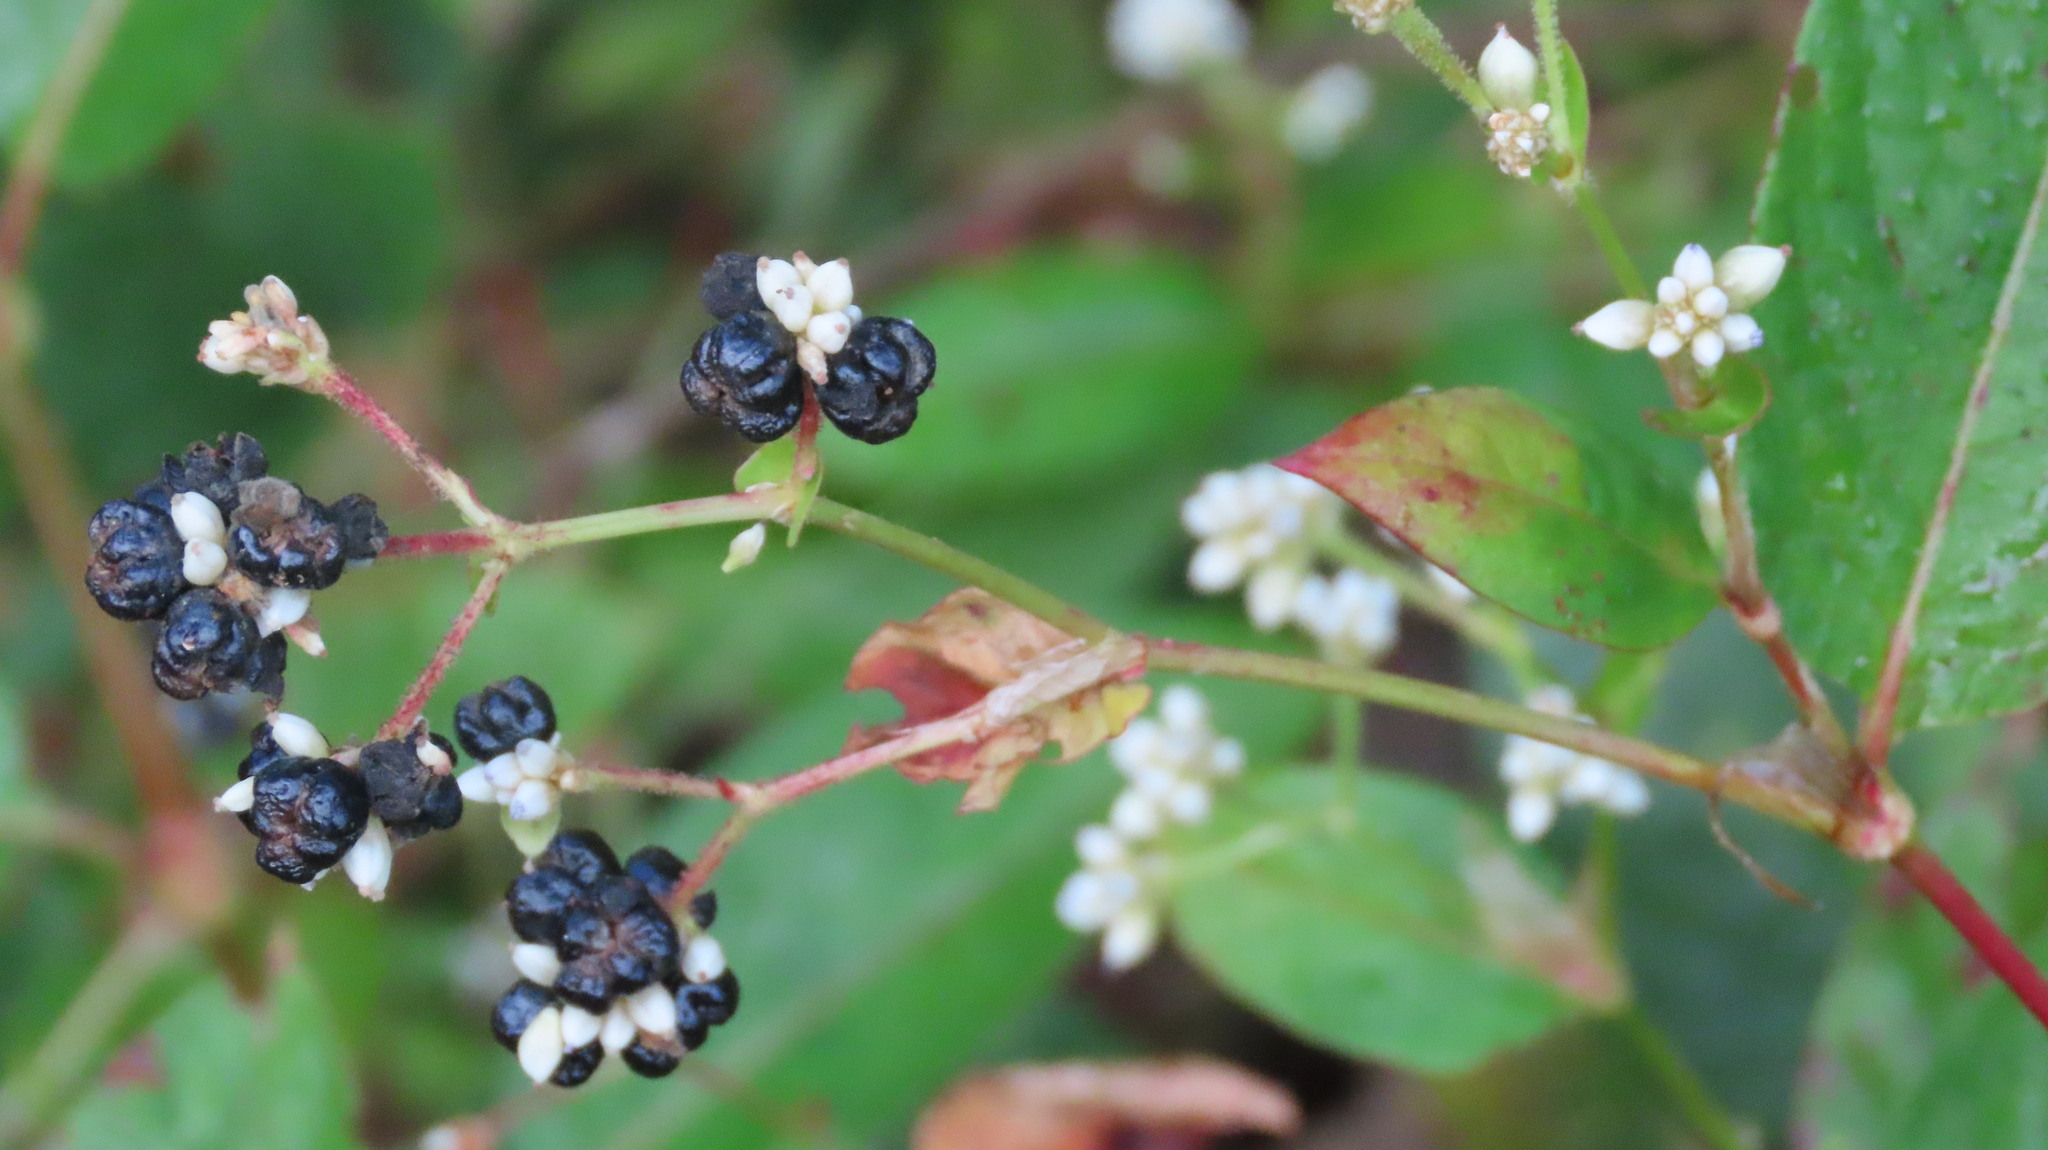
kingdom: Plantae
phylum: Tracheophyta
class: Magnoliopsida
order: Caryophyllales
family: Polygonaceae
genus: Persicaria
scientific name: Persicaria chinensis
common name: Chinese knotweed
